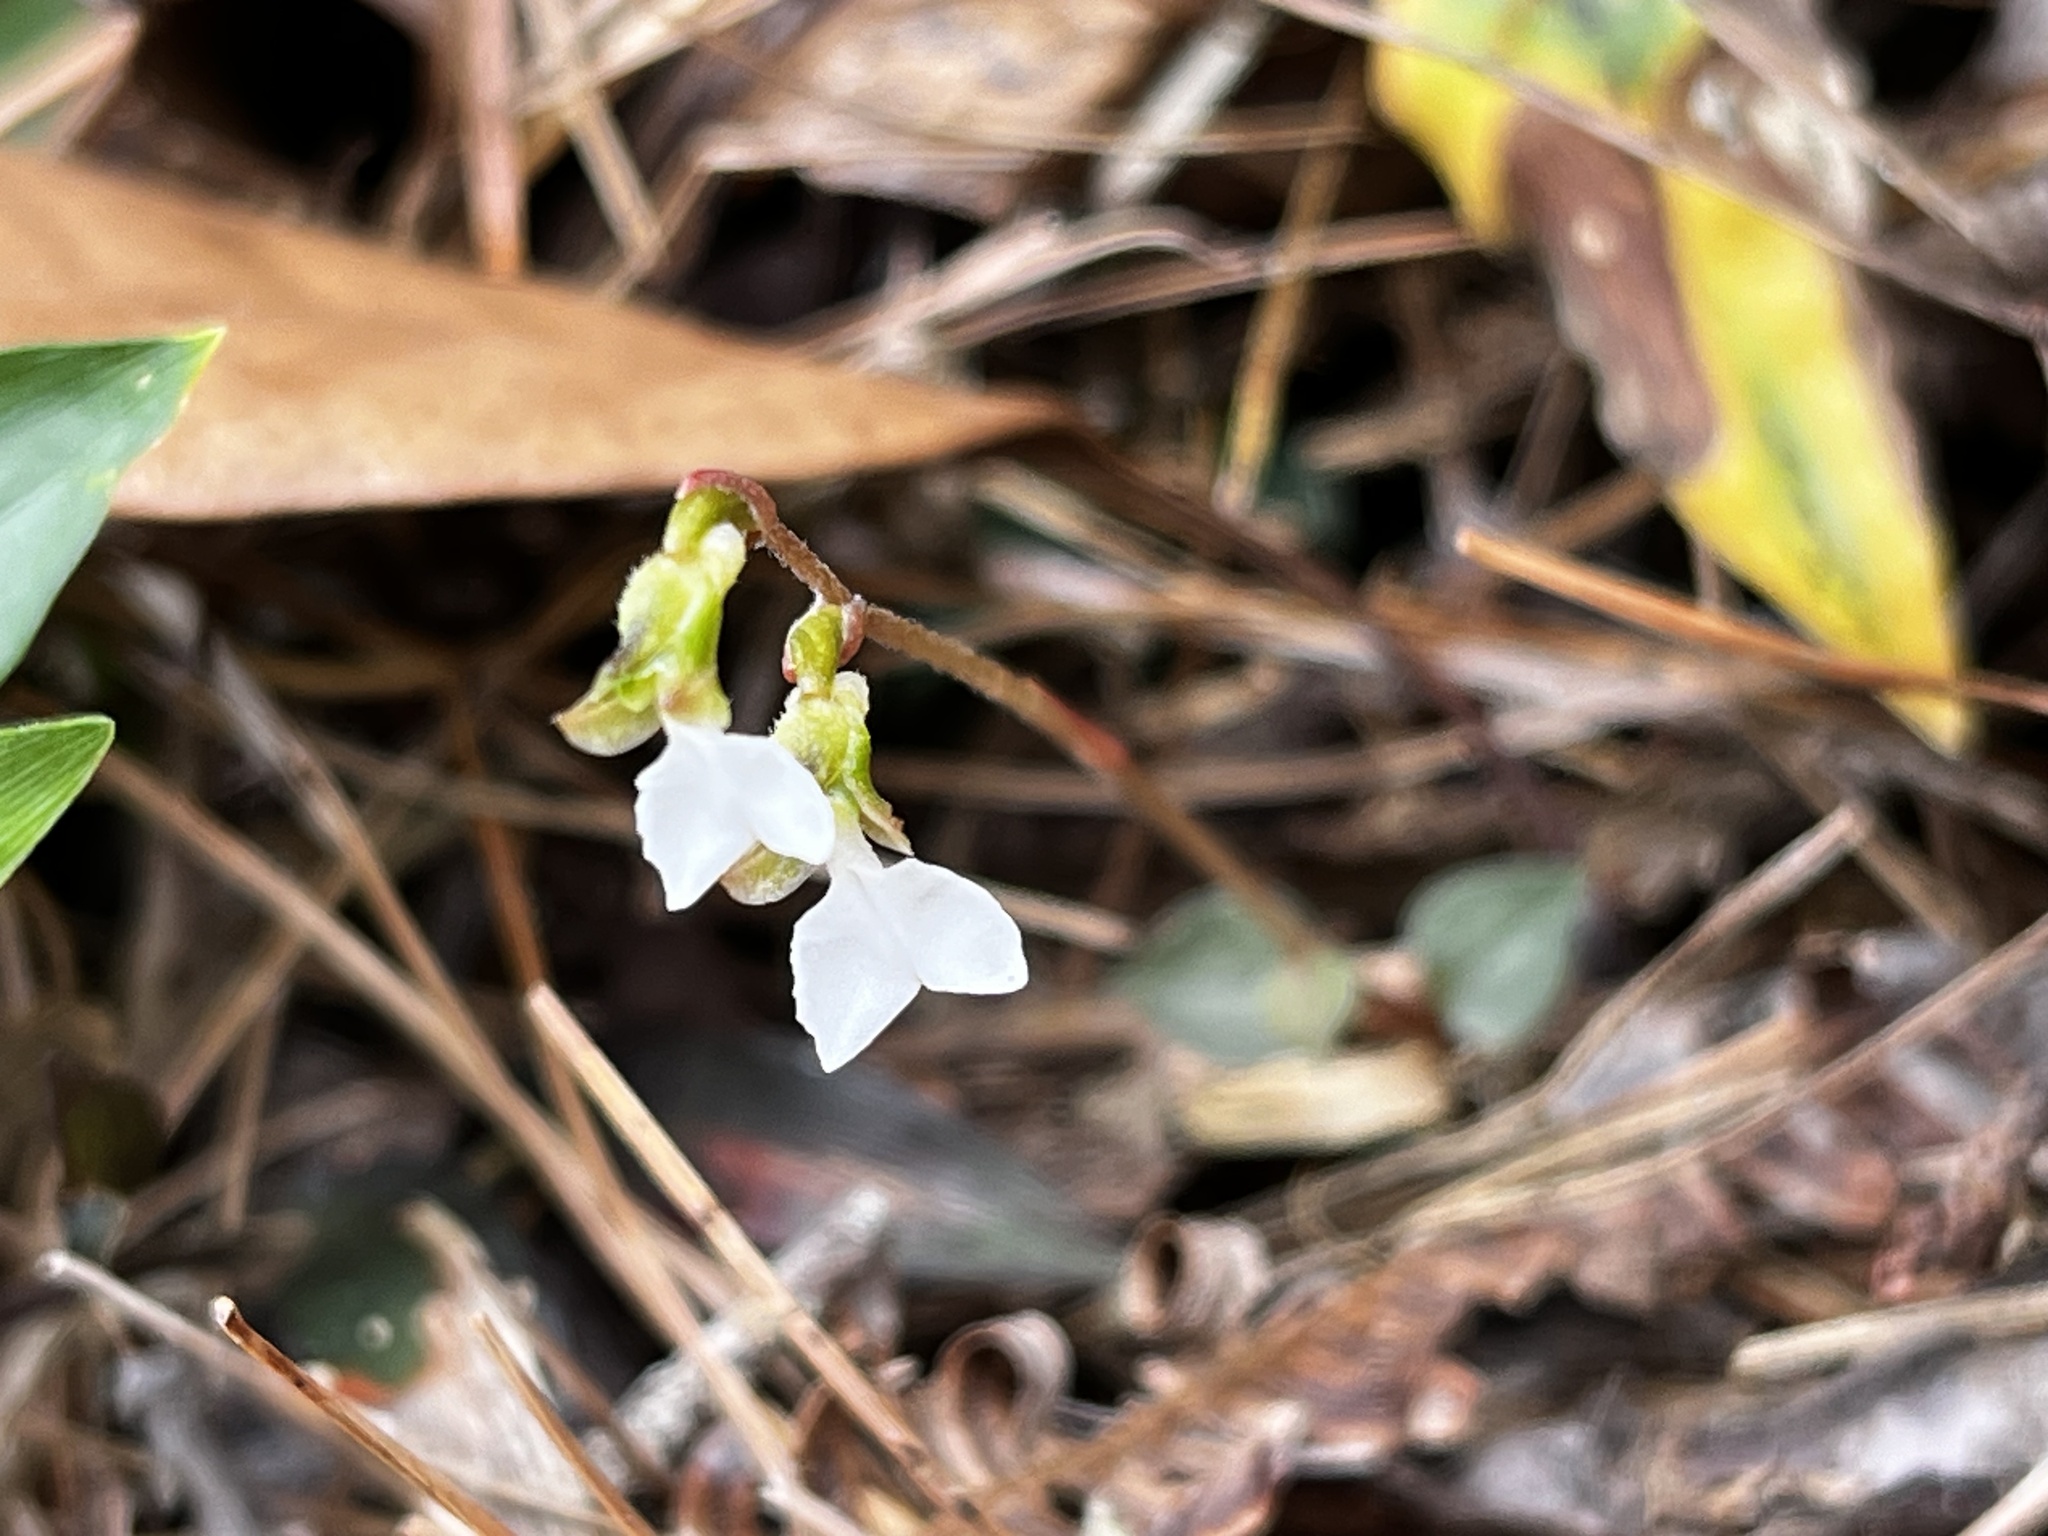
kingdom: Plantae
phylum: Tracheophyta
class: Liliopsida
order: Asparagales
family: Orchidaceae
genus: Odontochilus
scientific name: Odontochilus yakushimensis
